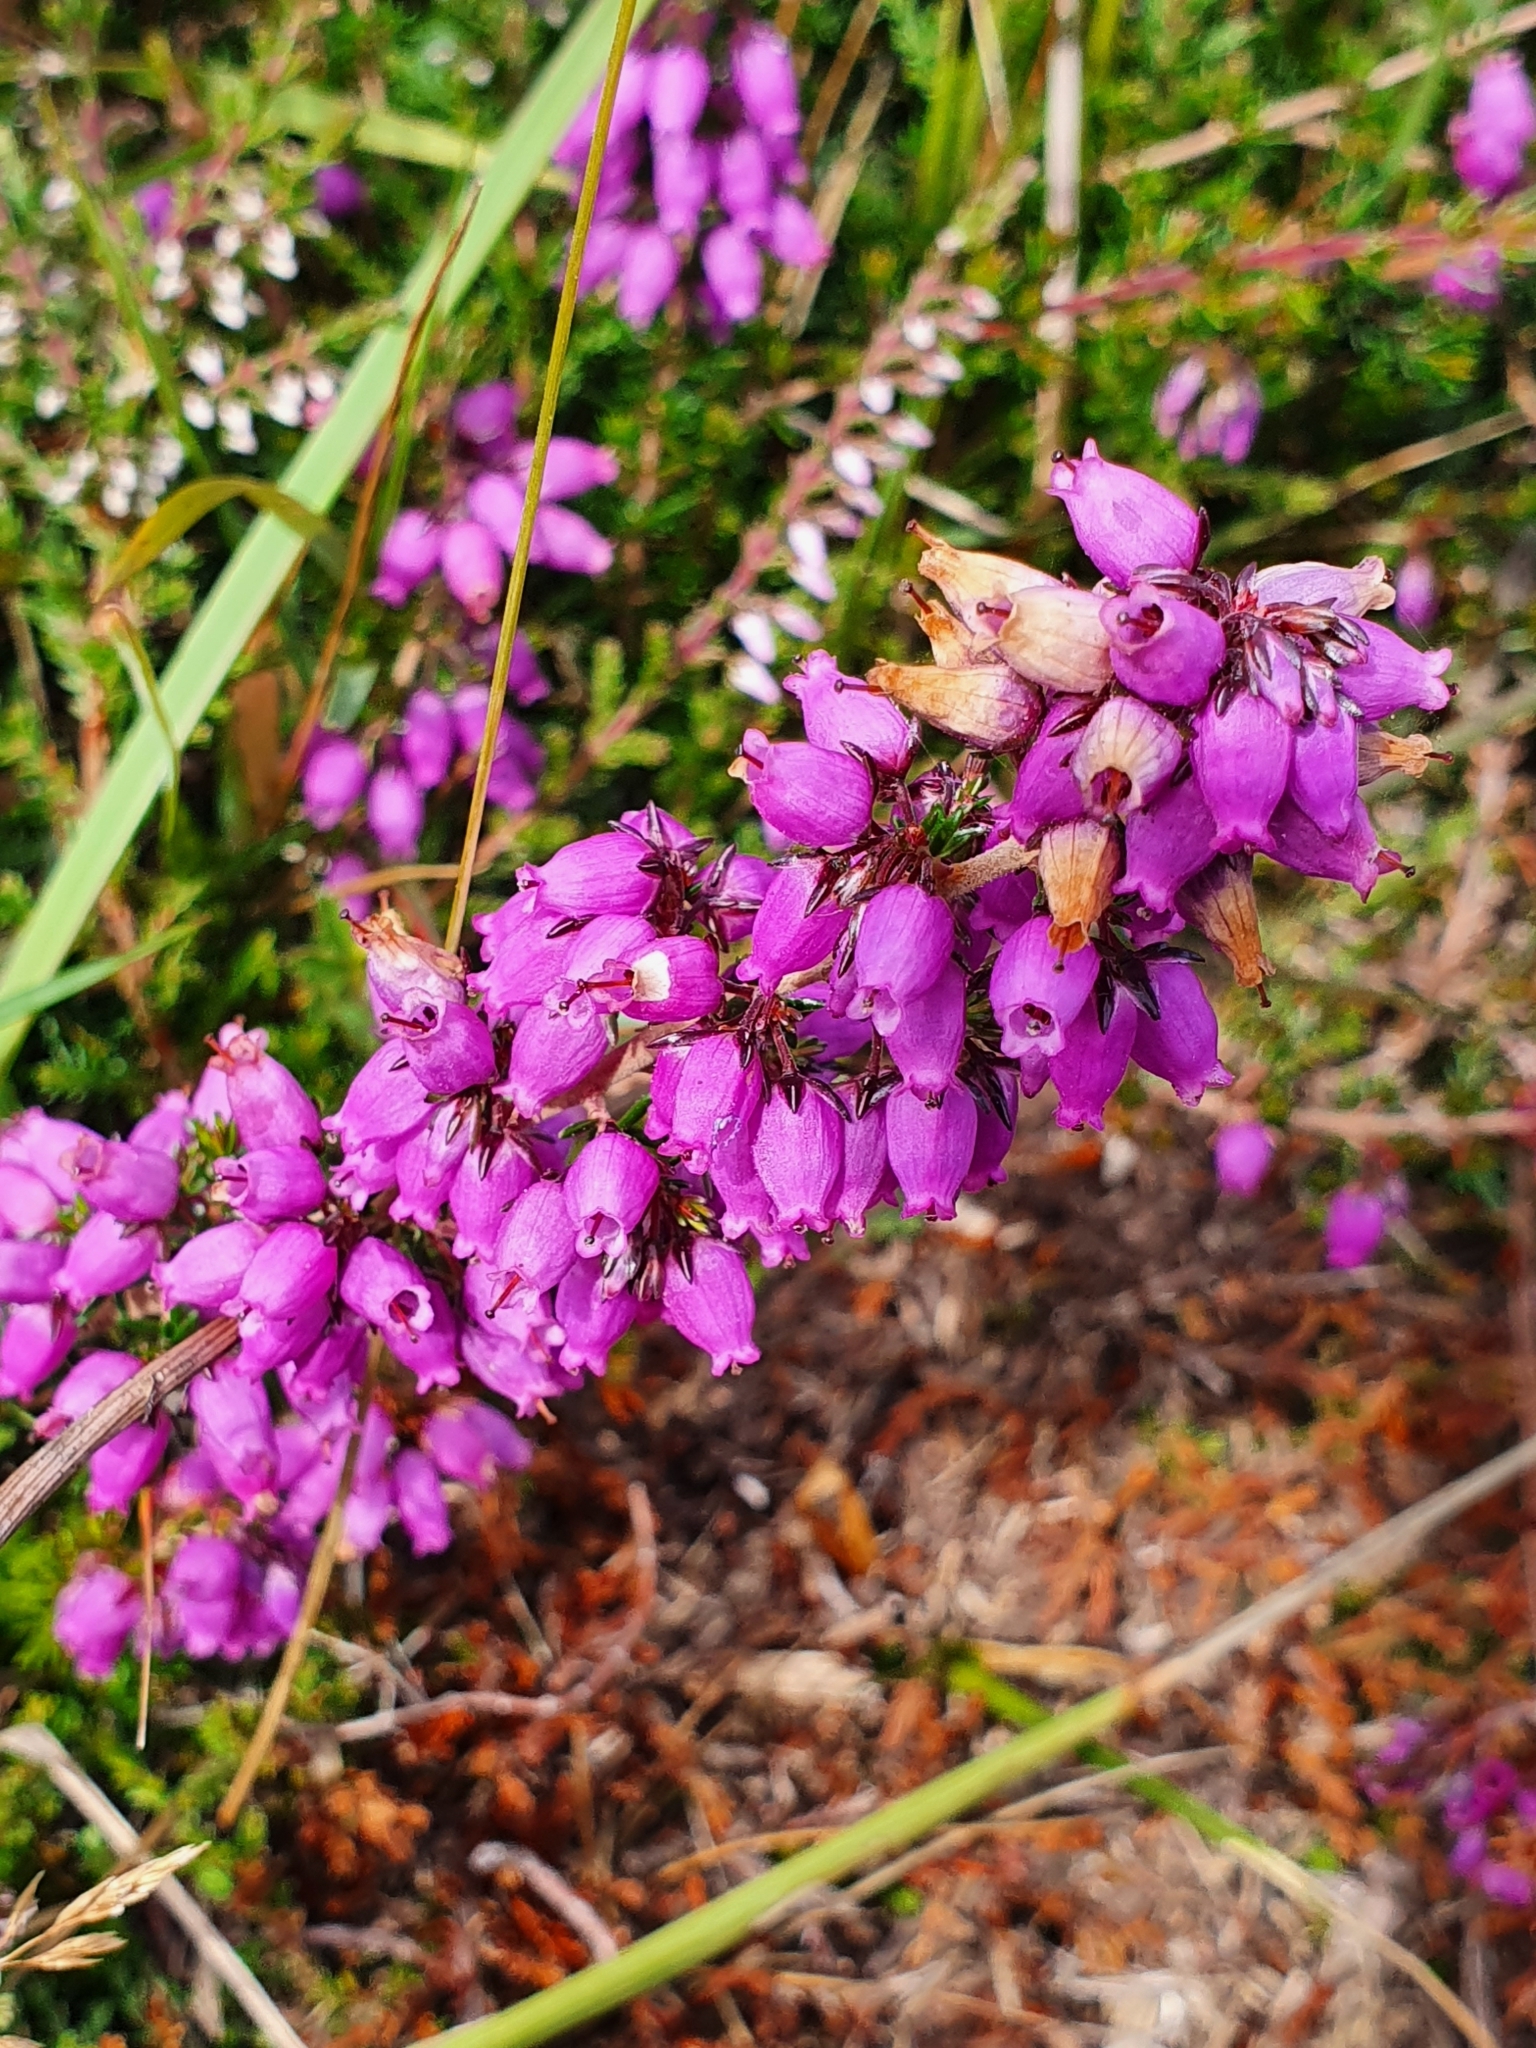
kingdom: Plantae
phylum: Tracheophyta
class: Magnoliopsida
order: Ericales
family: Ericaceae
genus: Erica
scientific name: Erica cinerea
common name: Bell heather
